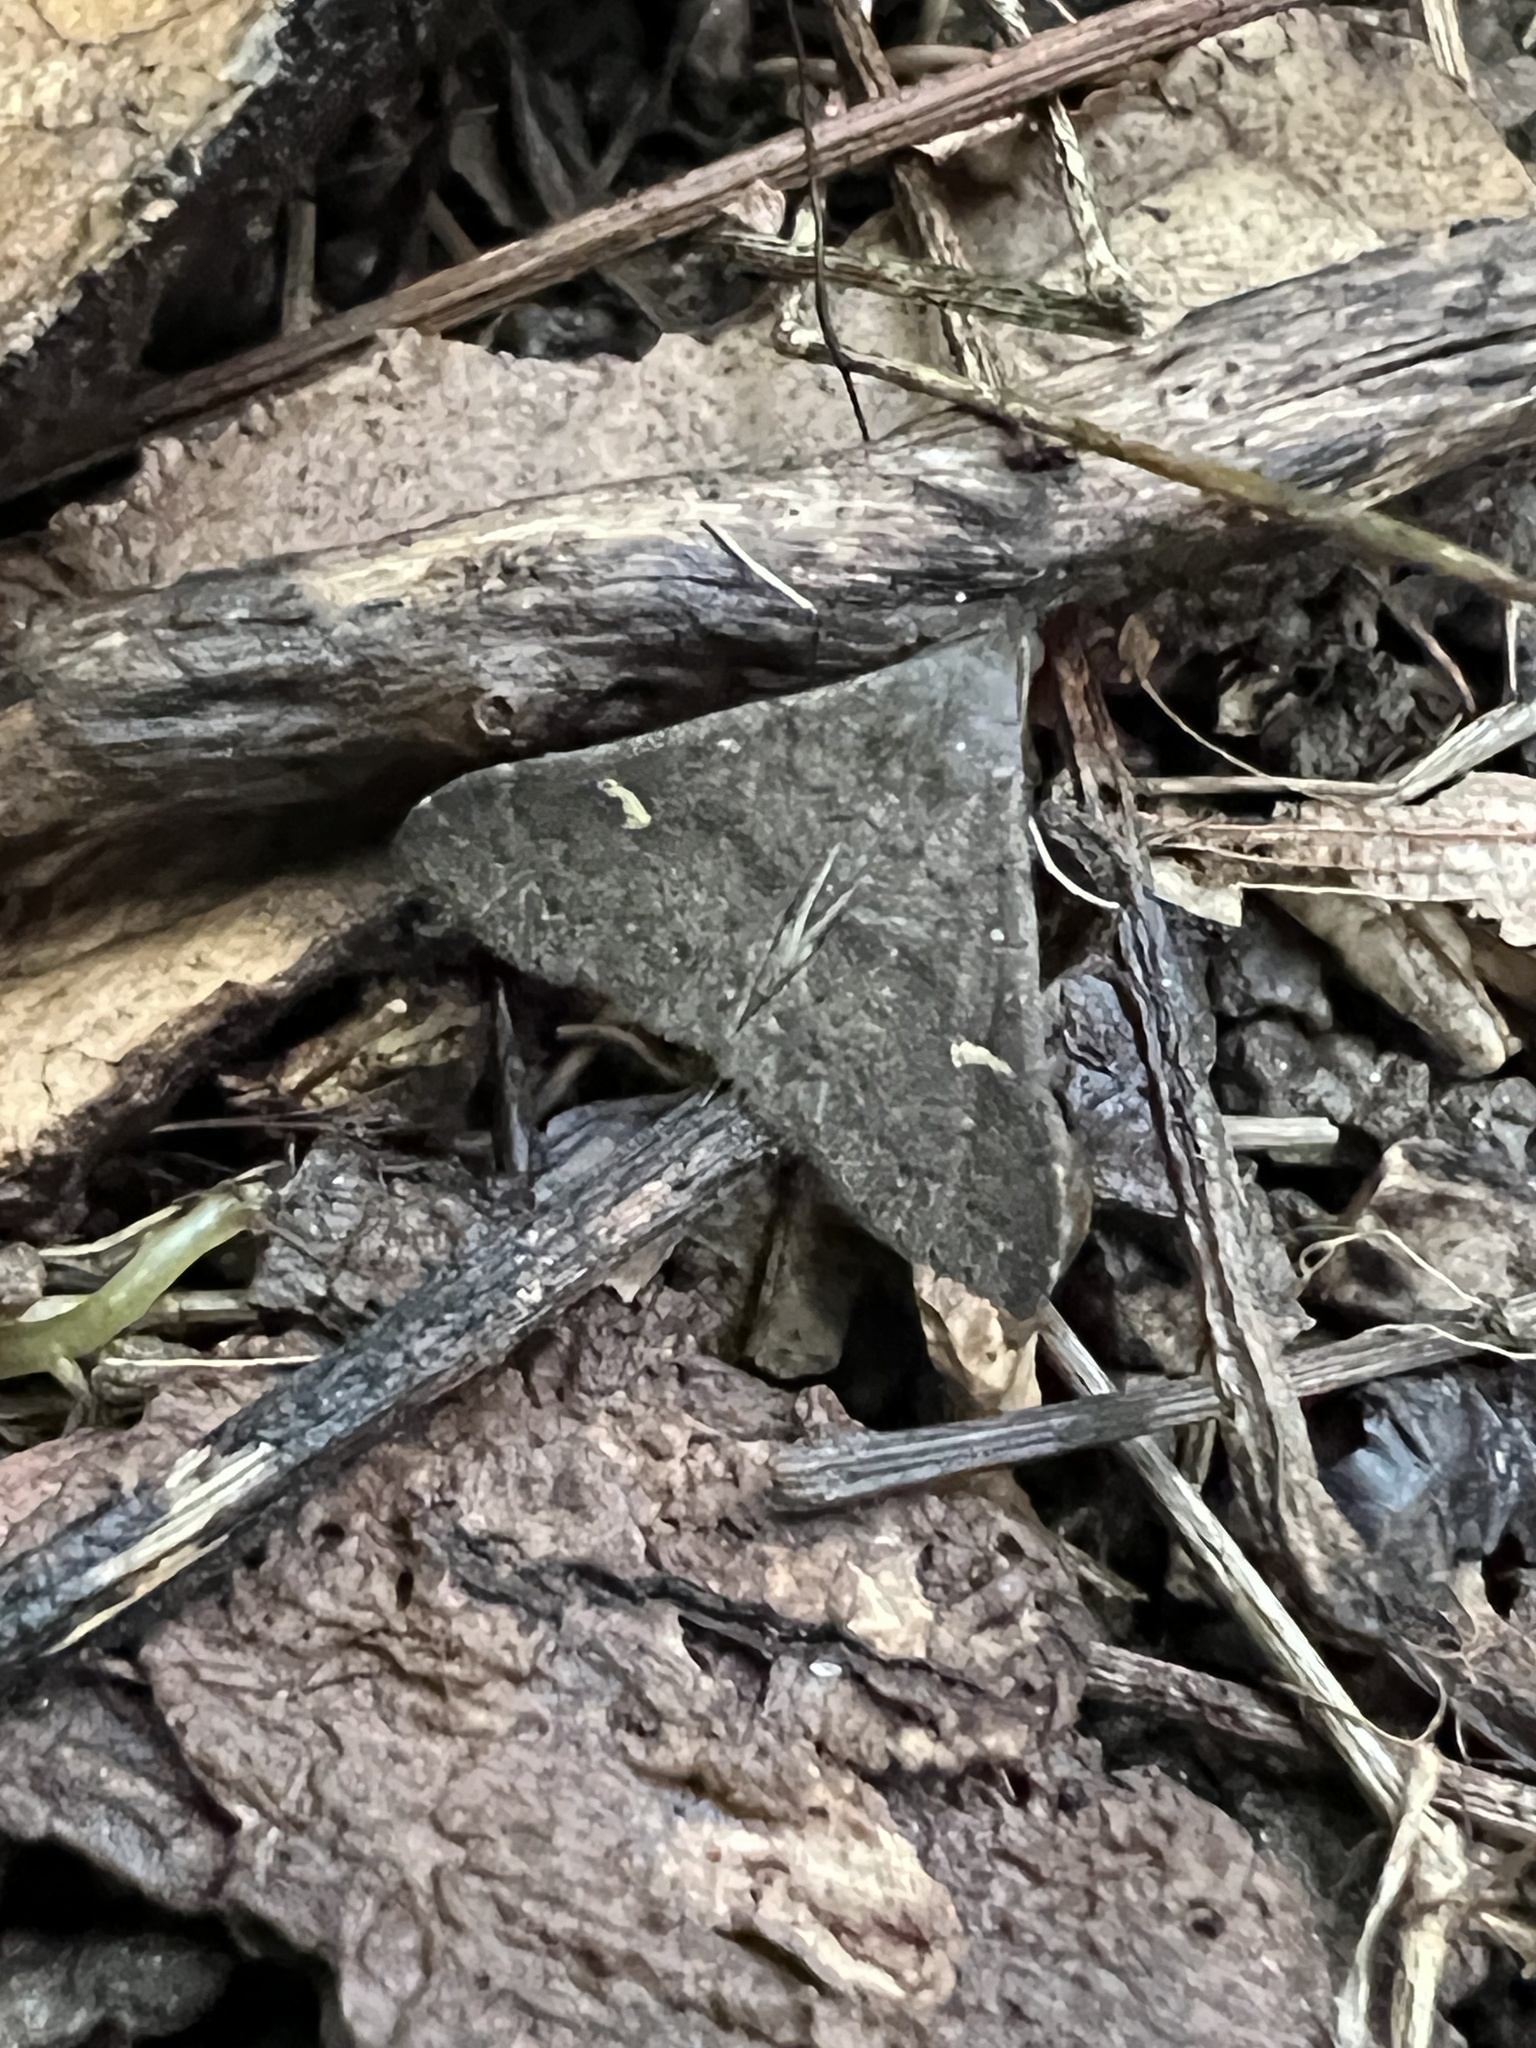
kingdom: Animalia
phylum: Arthropoda
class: Insecta
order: Lepidoptera
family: Erebidae
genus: Tetanolita
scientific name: Tetanolita mynesalis
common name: Smoky tetanolita moth
